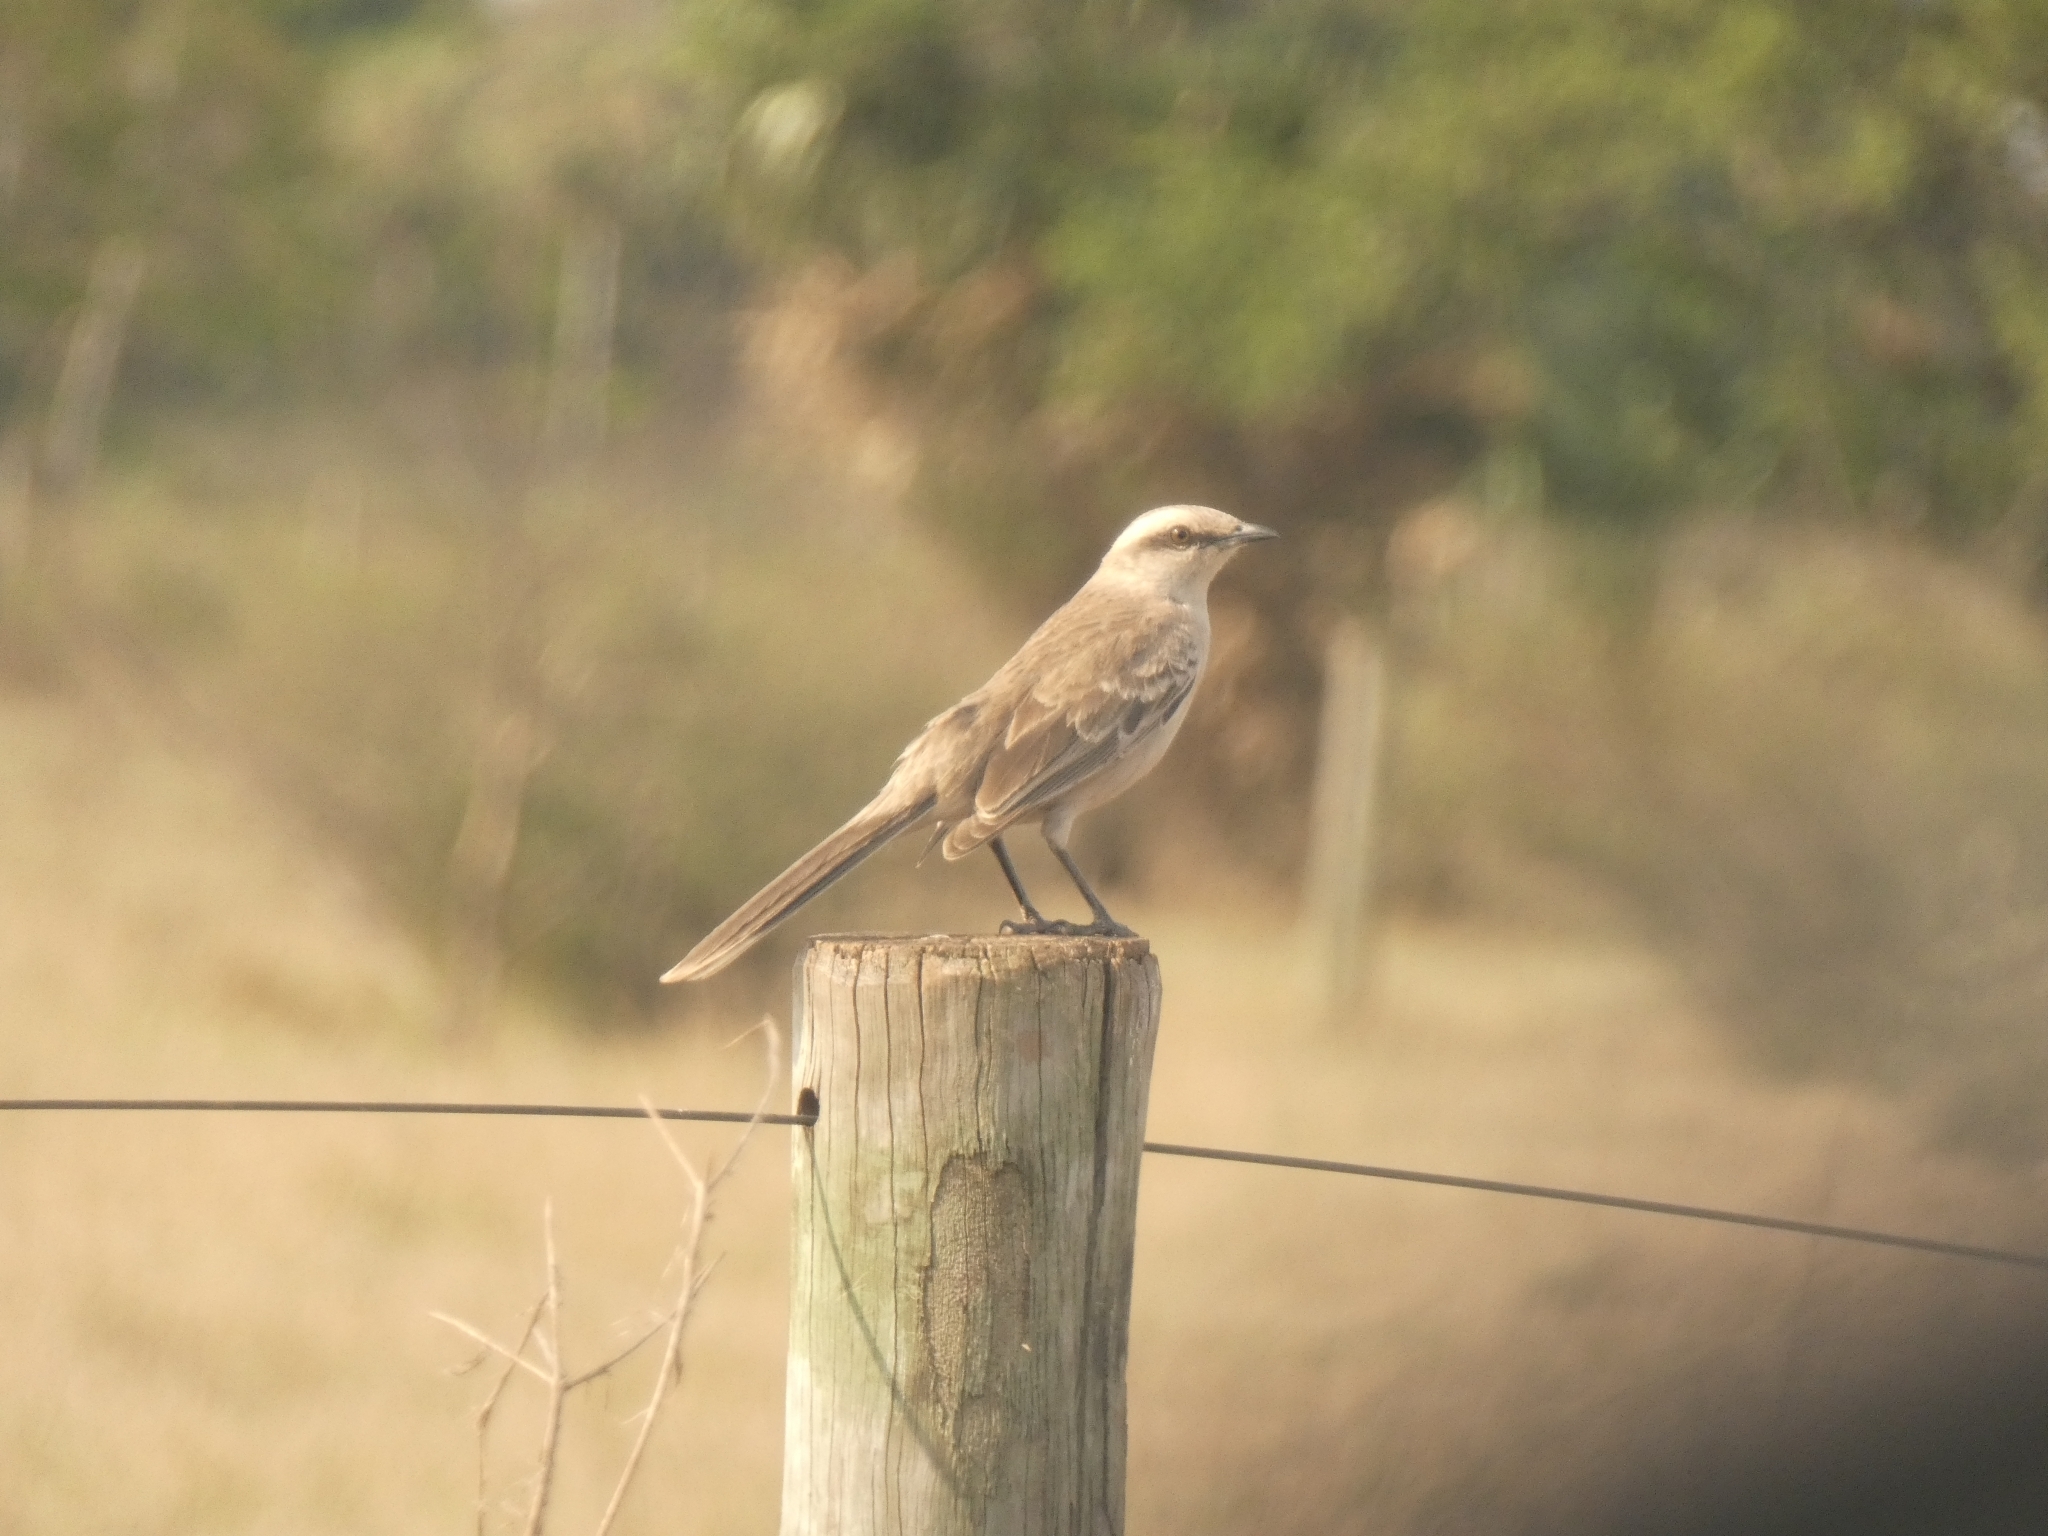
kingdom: Animalia
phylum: Chordata
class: Aves
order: Passeriformes
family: Mimidae
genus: Mimus
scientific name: Mimus saturninus
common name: Chalk-browed mockingbird
